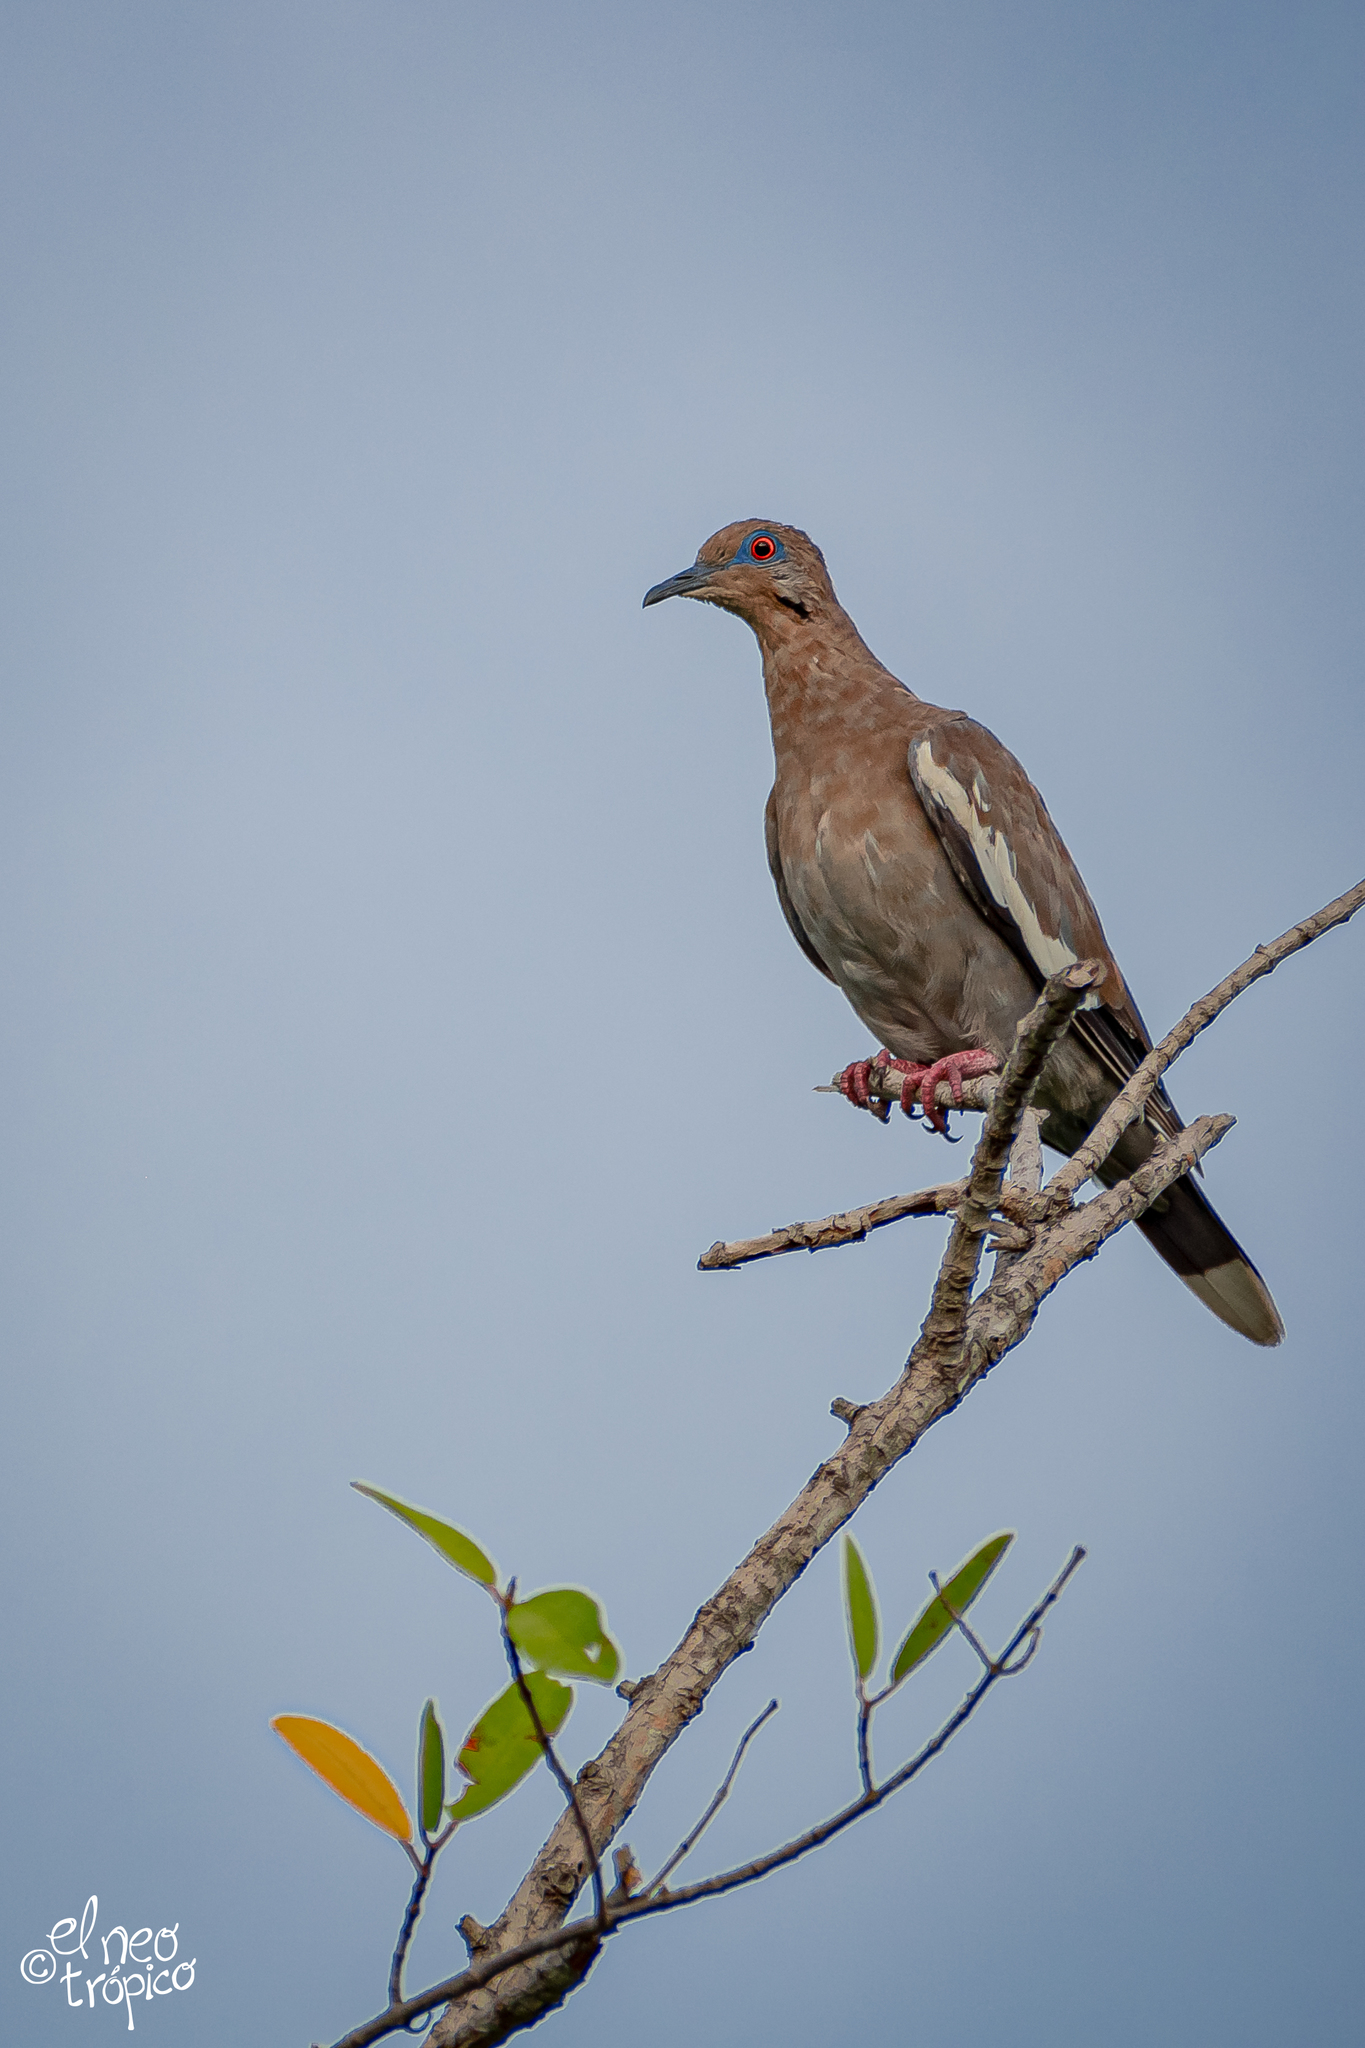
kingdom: Animalia
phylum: Chordata
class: Aves
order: Columbiformes
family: Columbidae
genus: Zenaida
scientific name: Zenaida asiatica
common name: White-winged dove
